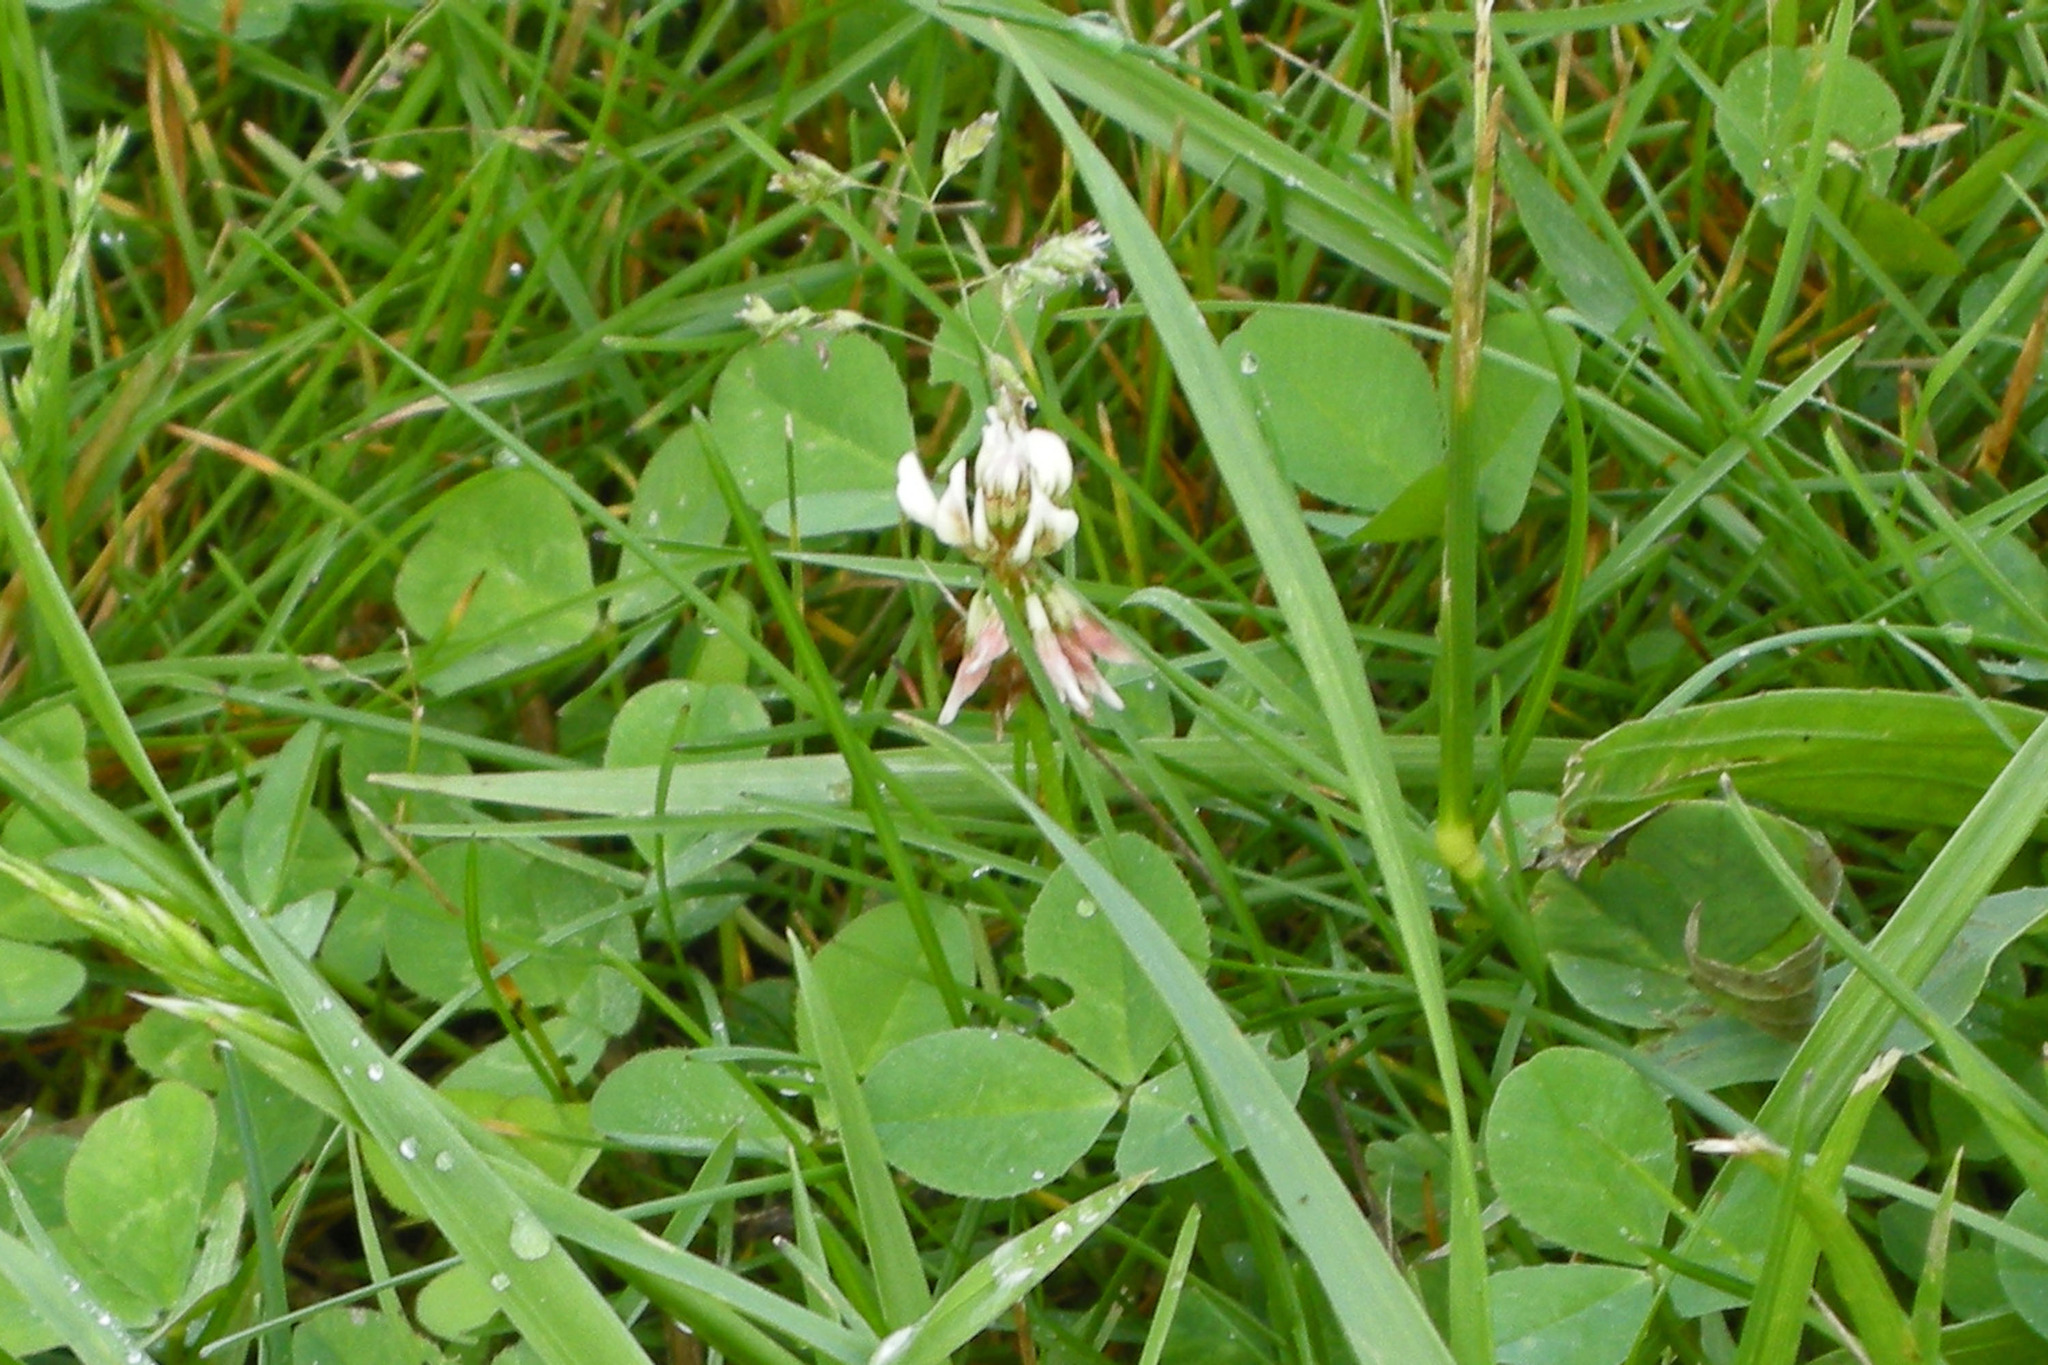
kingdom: Plantae
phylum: Tracheophyta
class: Magnoliopsida
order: Fabales
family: Fabaceae
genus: Trifolium
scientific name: Trifolium repens
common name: White clover
